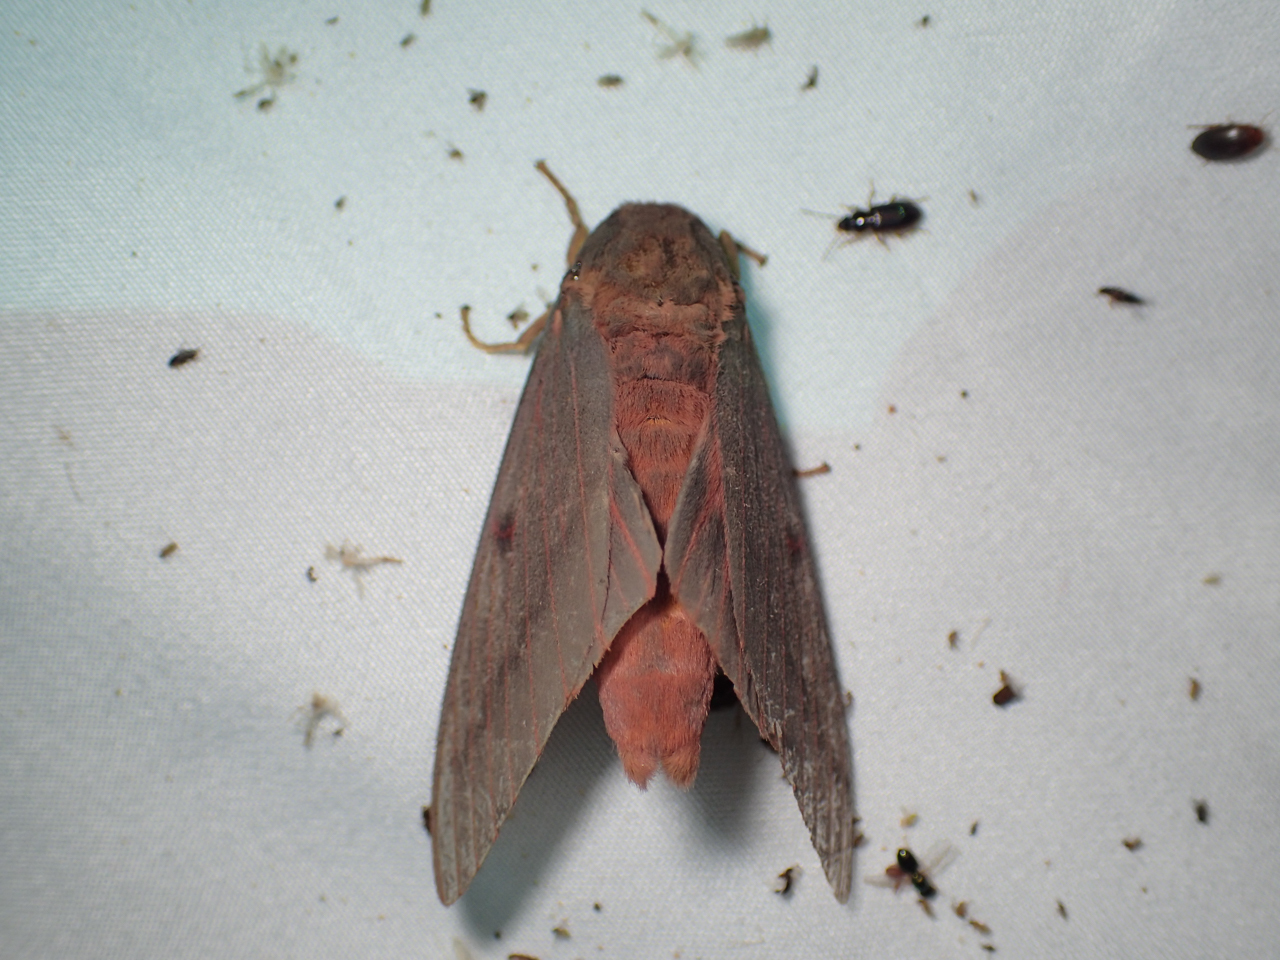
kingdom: Animalia
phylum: Arthropoda
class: Insecta
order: Lepidoptera
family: Saturniidae
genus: Citheronia
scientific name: Citheronia sepulcralis
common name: Pine-devil moth
